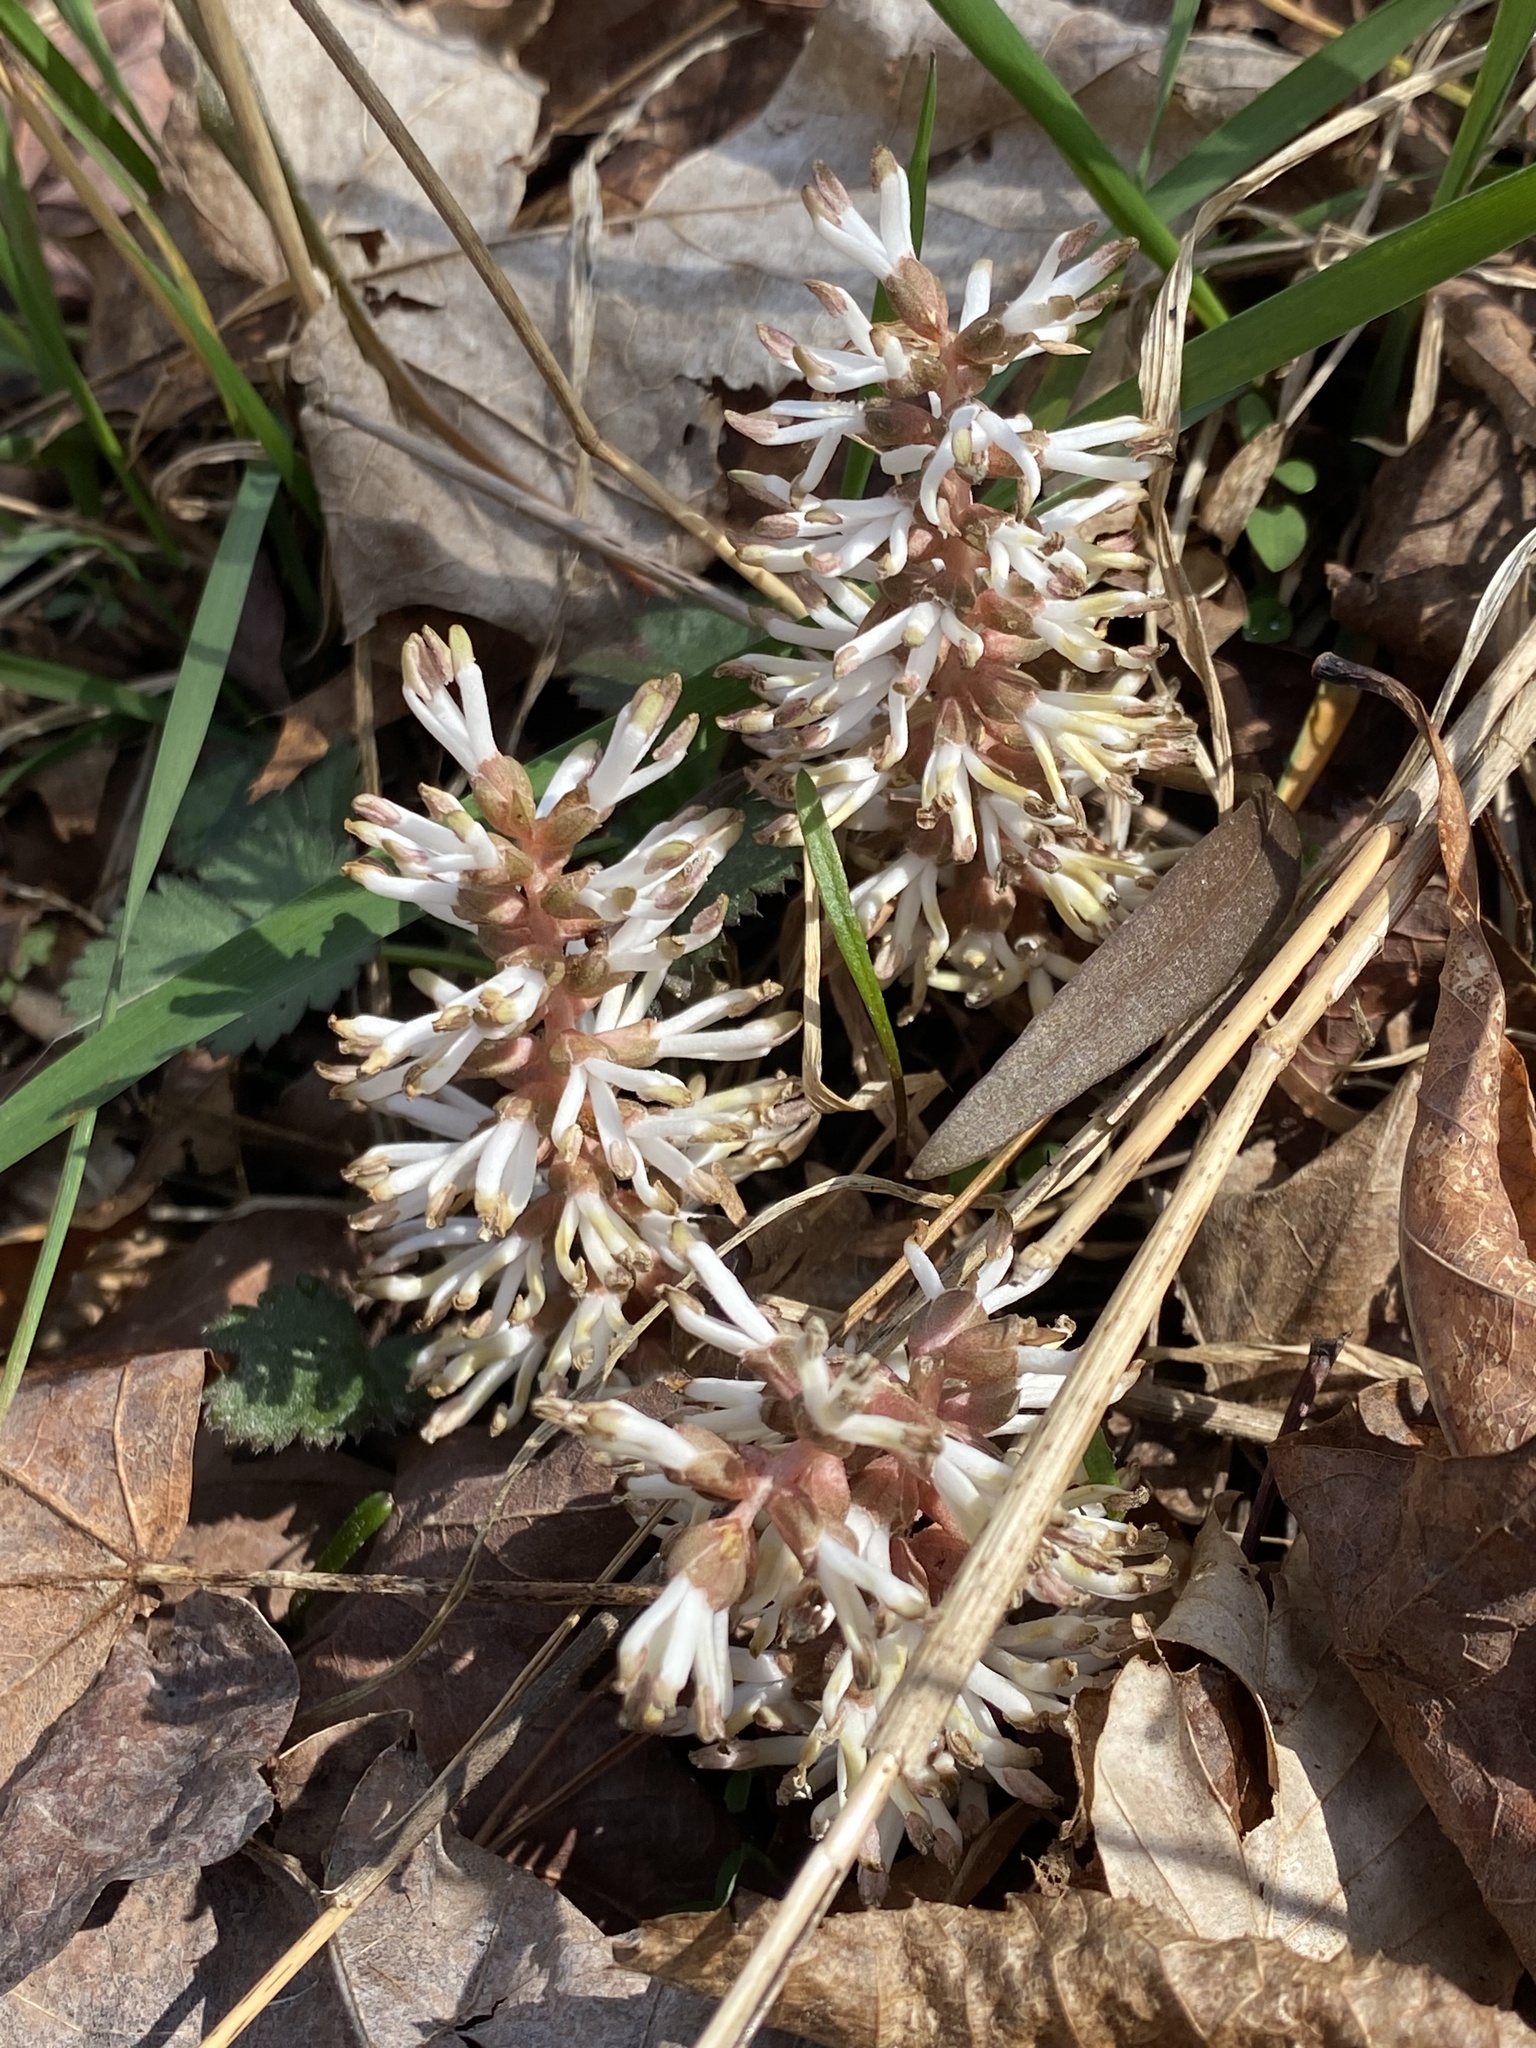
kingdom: Plantae
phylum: Tracheophyta
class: Magnoliopsida
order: Buxales
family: Buxaceae
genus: Pachysandra
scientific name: Pachysandra procumbens
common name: Mountain-spurge
